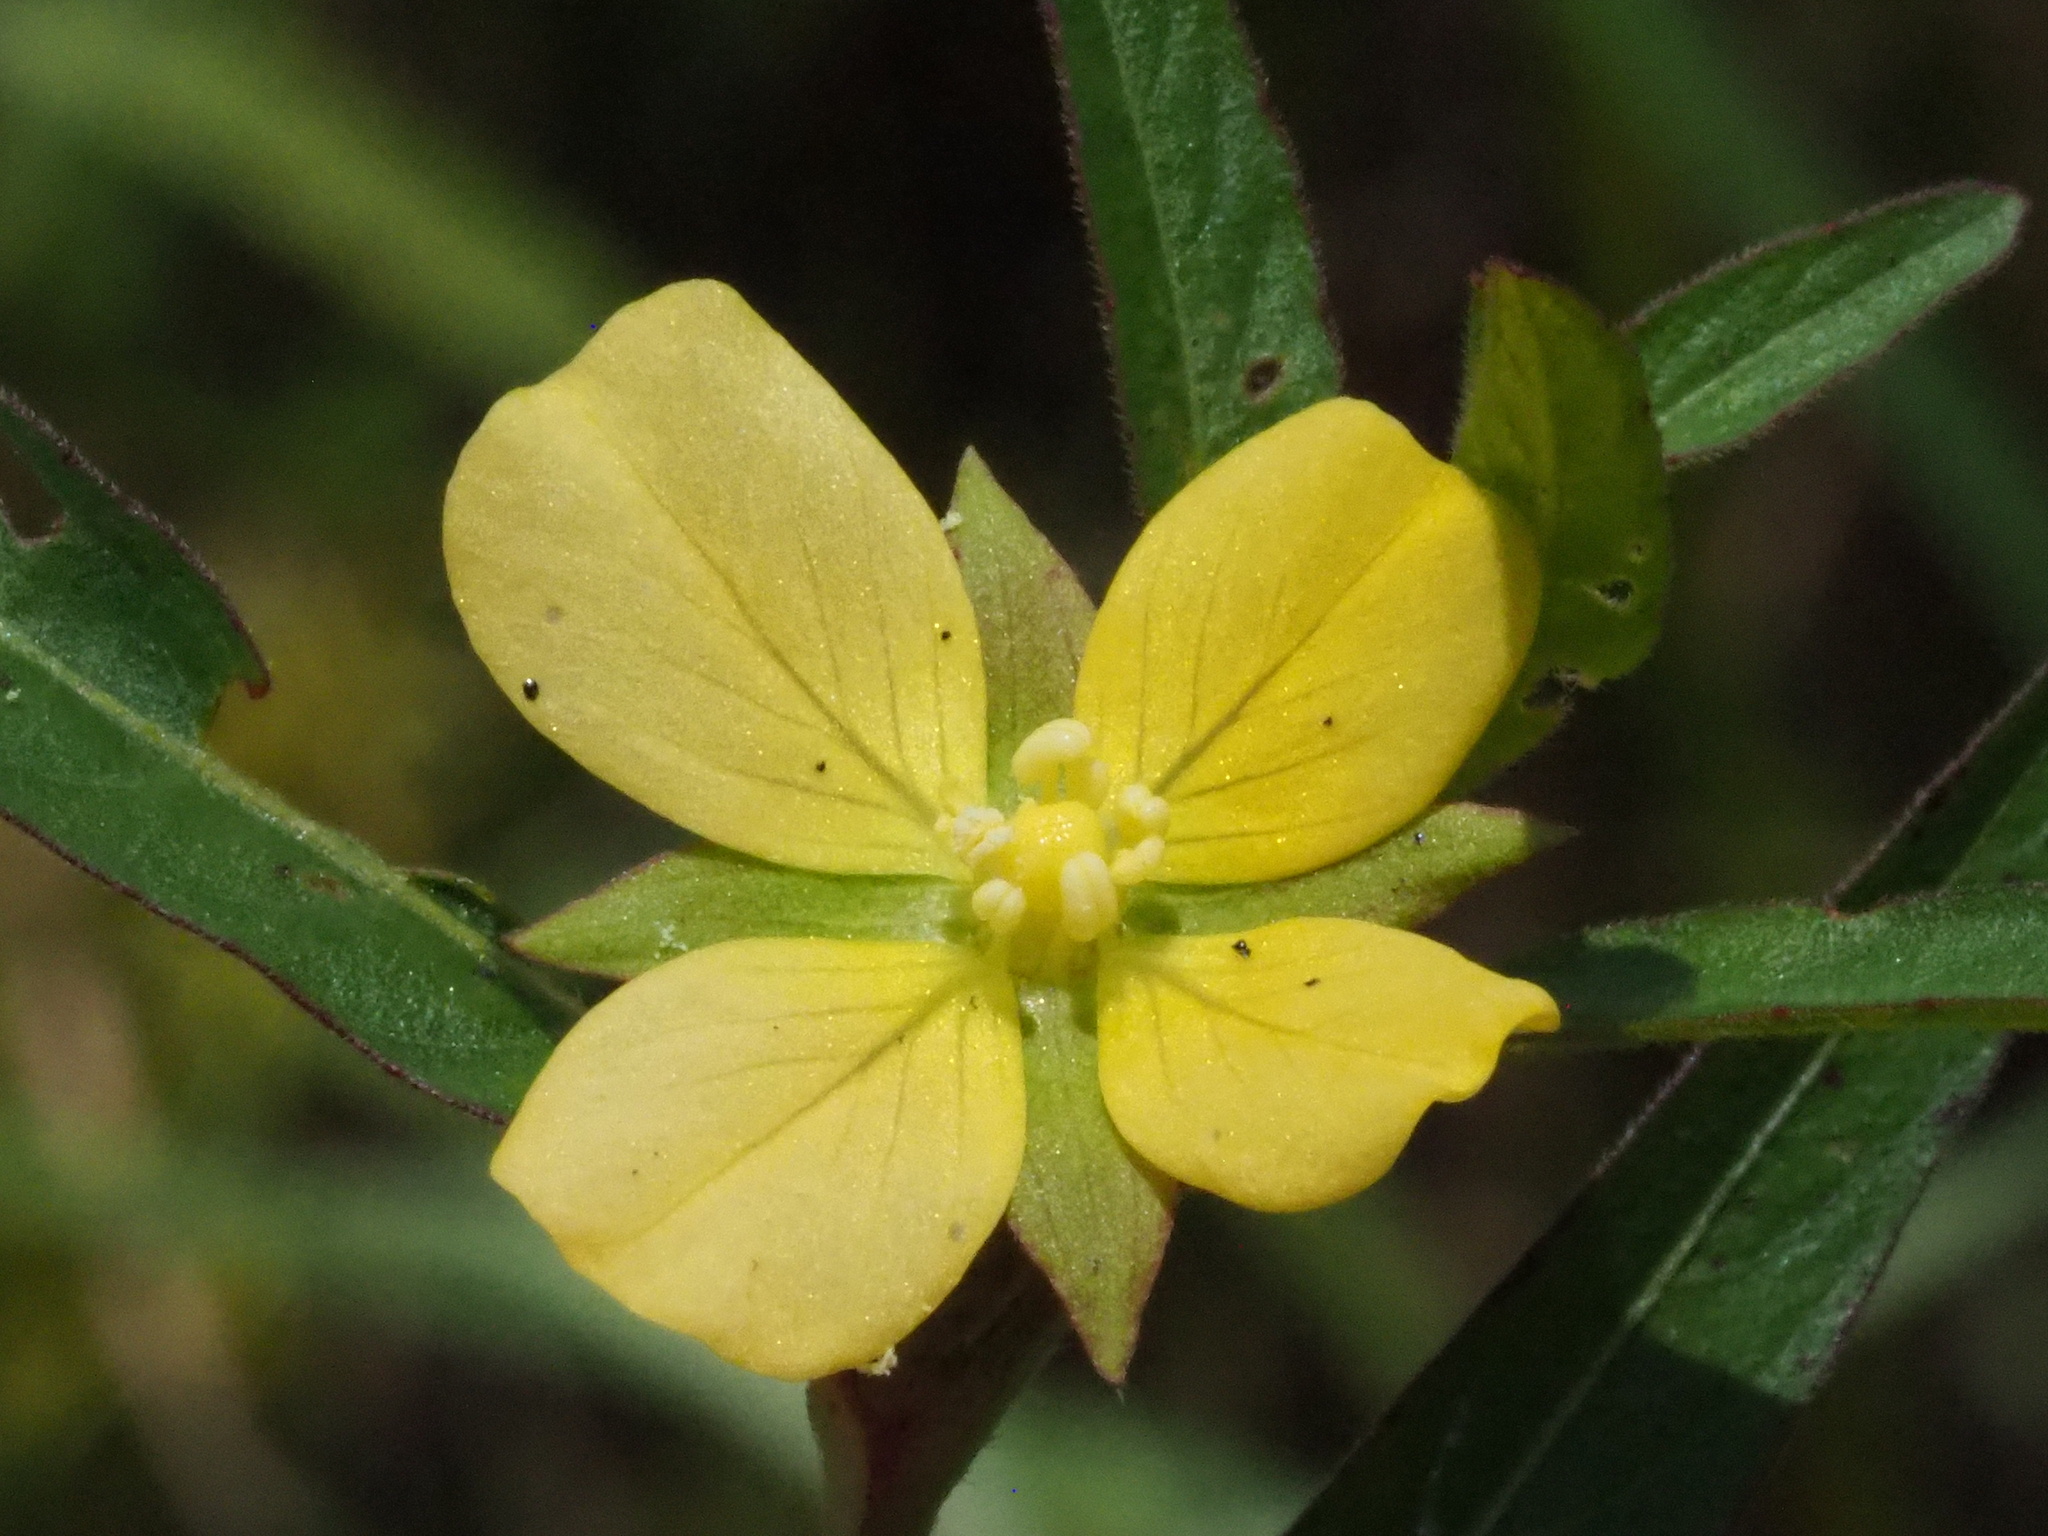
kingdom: Plantae
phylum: Tracheophyta
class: Magnoliopsida
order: Myrtales
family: Onagraceae
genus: Ludwigia
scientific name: Ludwigia octovalvis
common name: Water-primrose
